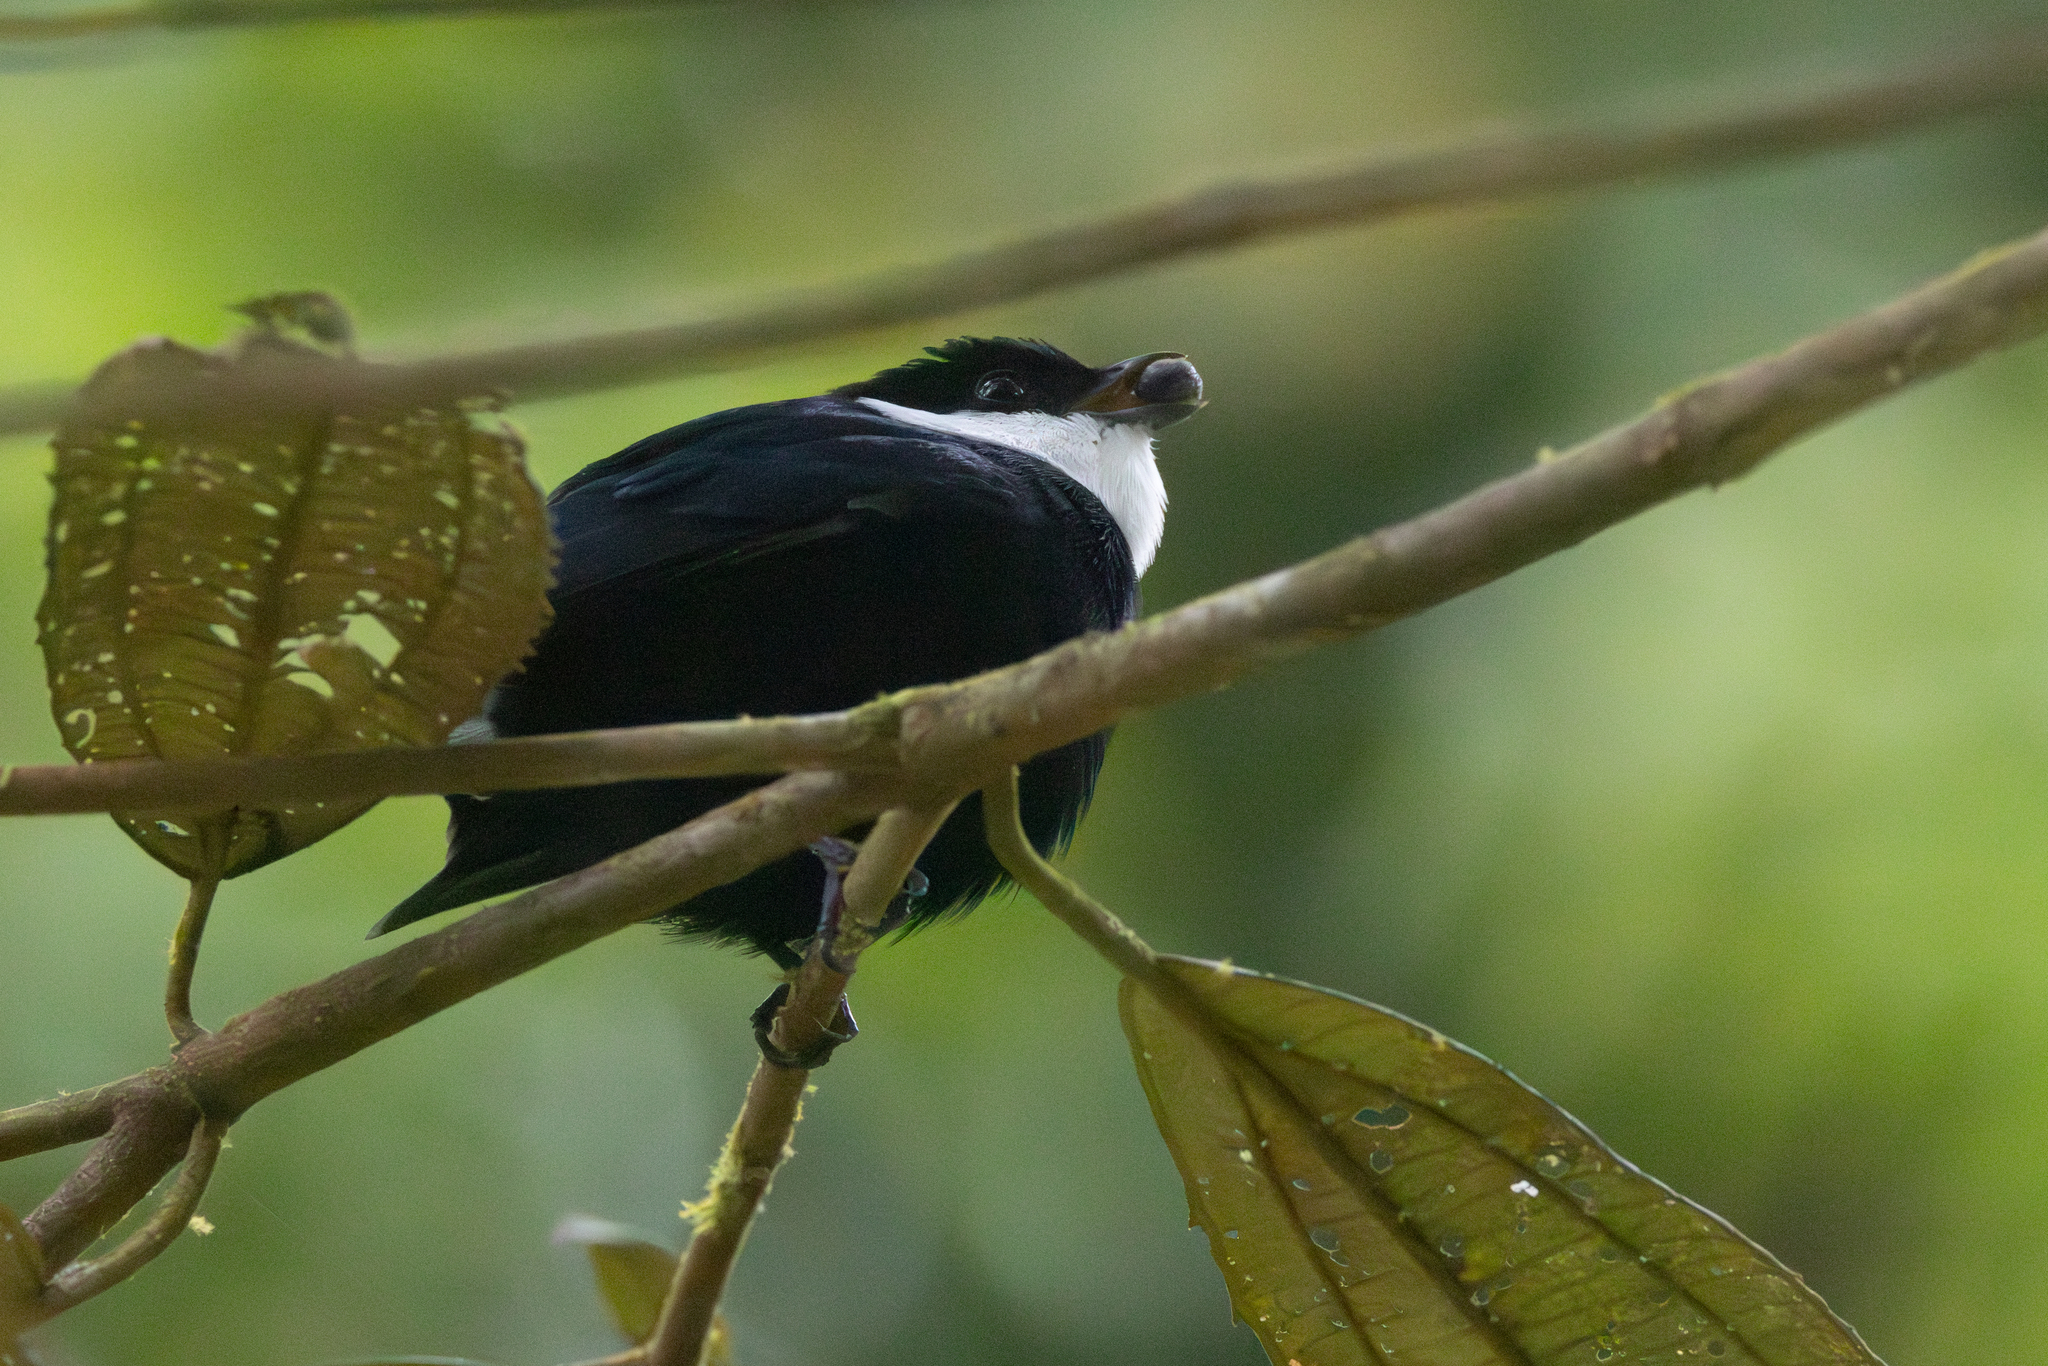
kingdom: Animalia
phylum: Chordata
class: Aves
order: Passeriformes
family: Pipridae
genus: Corapipo
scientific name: Corapipo altera
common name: White-ruffed manakin
